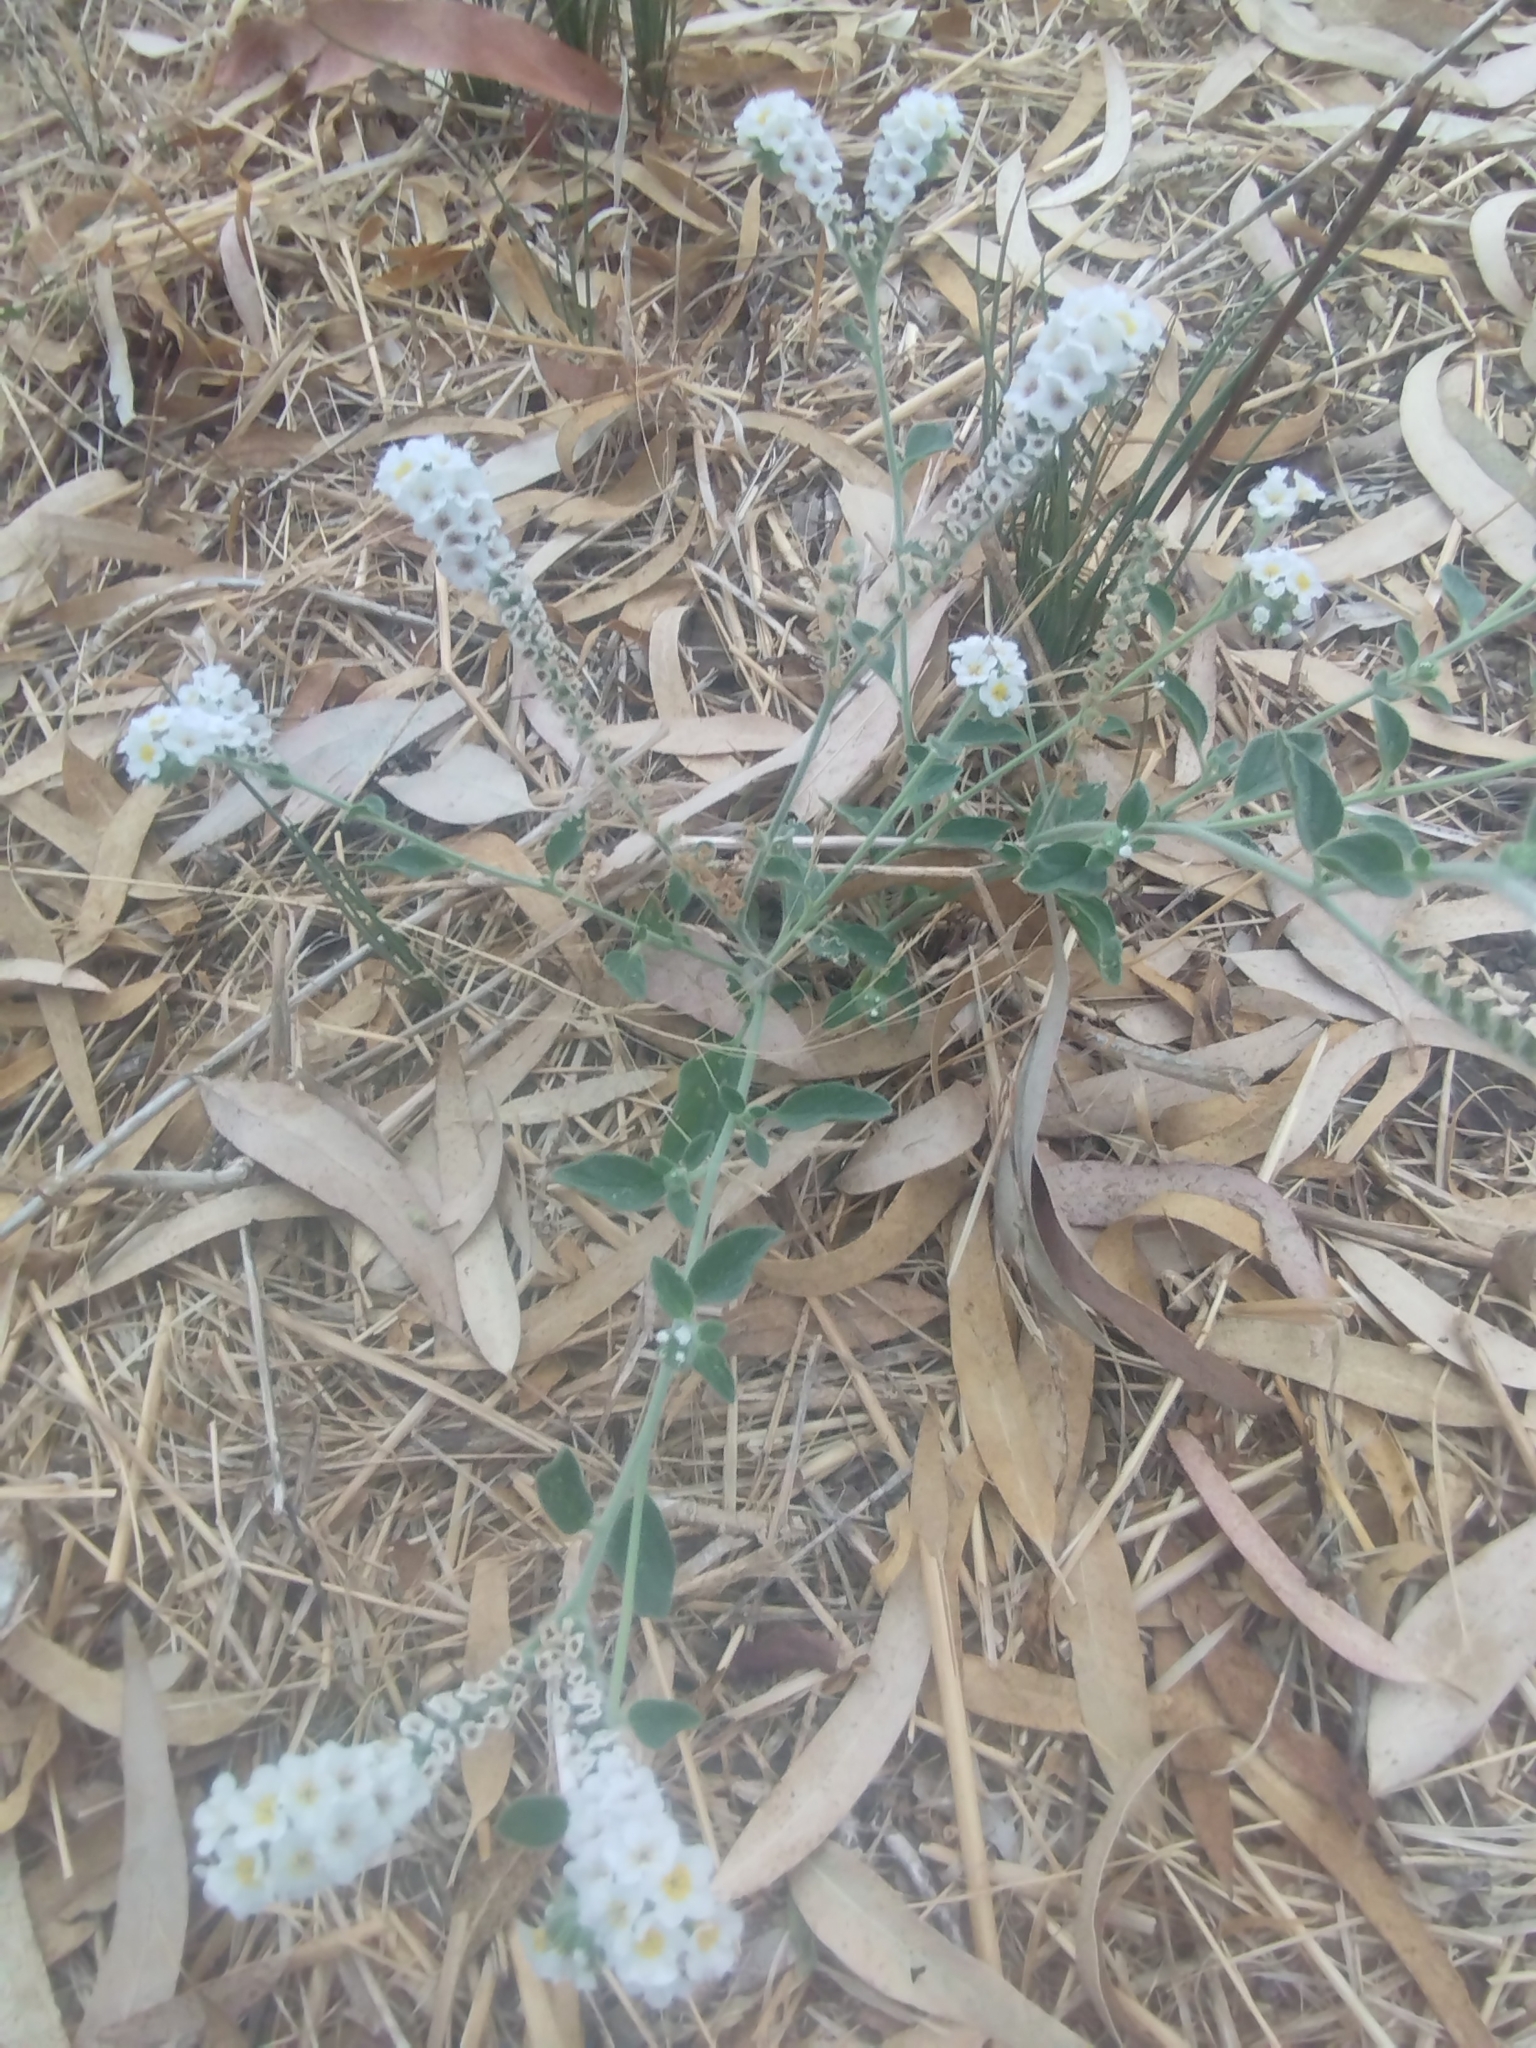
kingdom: Plantae
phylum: Tracheophyta
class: Magnoliopsida
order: Boraginales
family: Heliotropiaceae
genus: Heliotropium
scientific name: Heliotropium hirsutissimum
